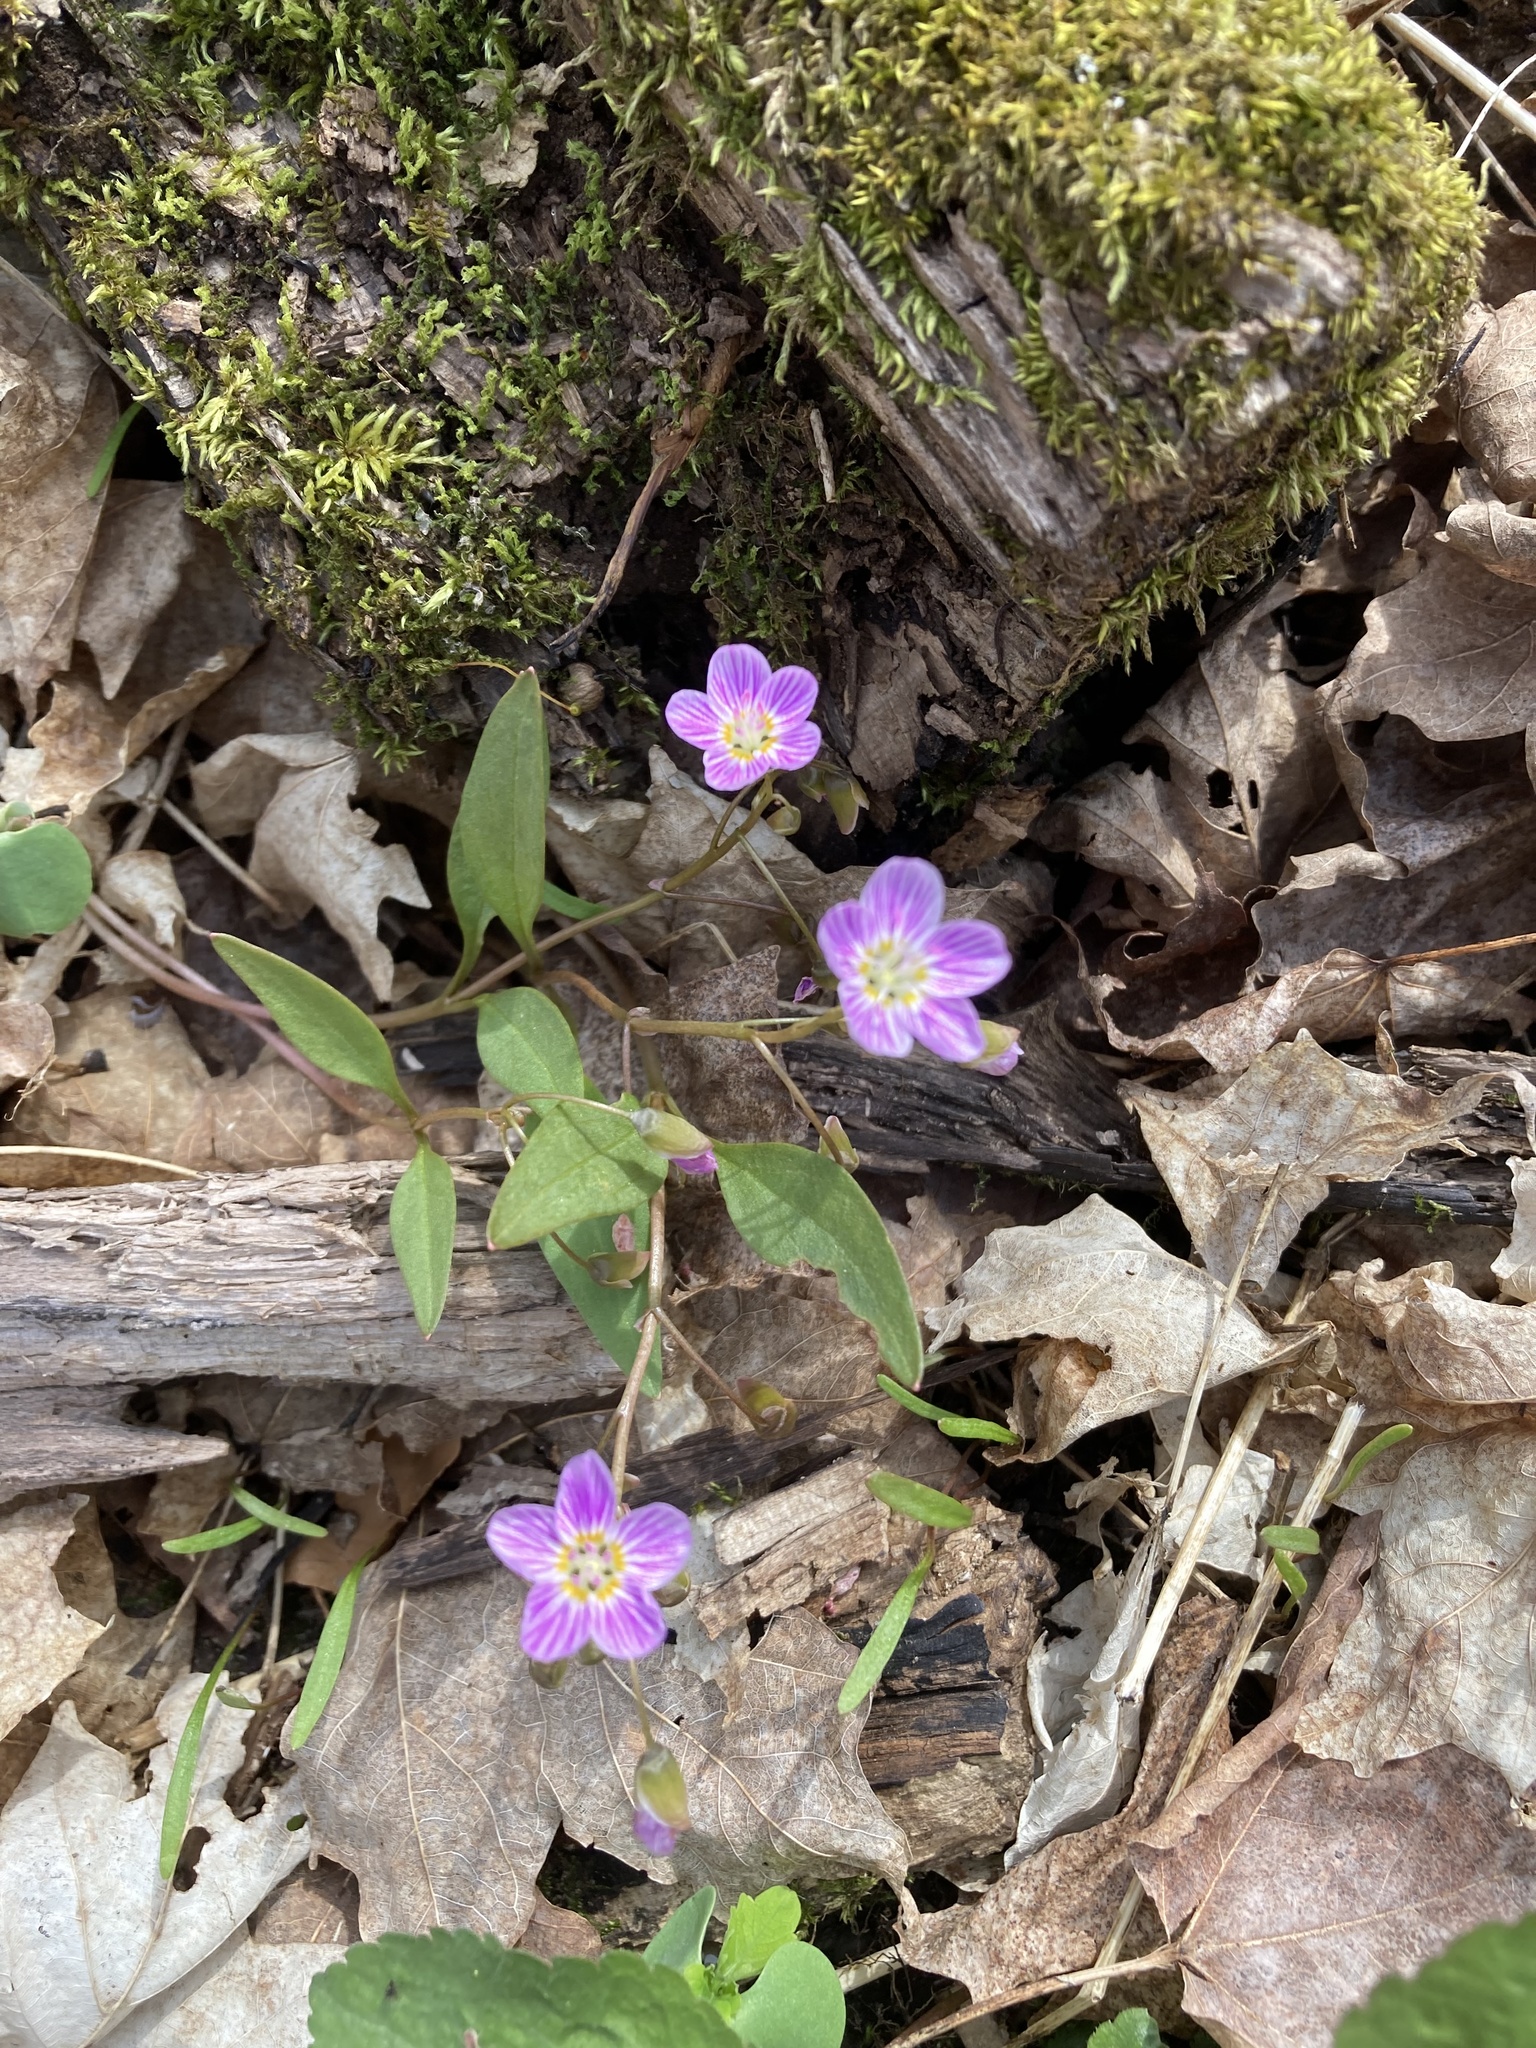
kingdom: Plantae
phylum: Tracheophyta
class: Magnoliopsida
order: Caryophyllales
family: Montiaceae
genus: Claytonia
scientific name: Claytonia caroliniana
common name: Carolina spring beauty
